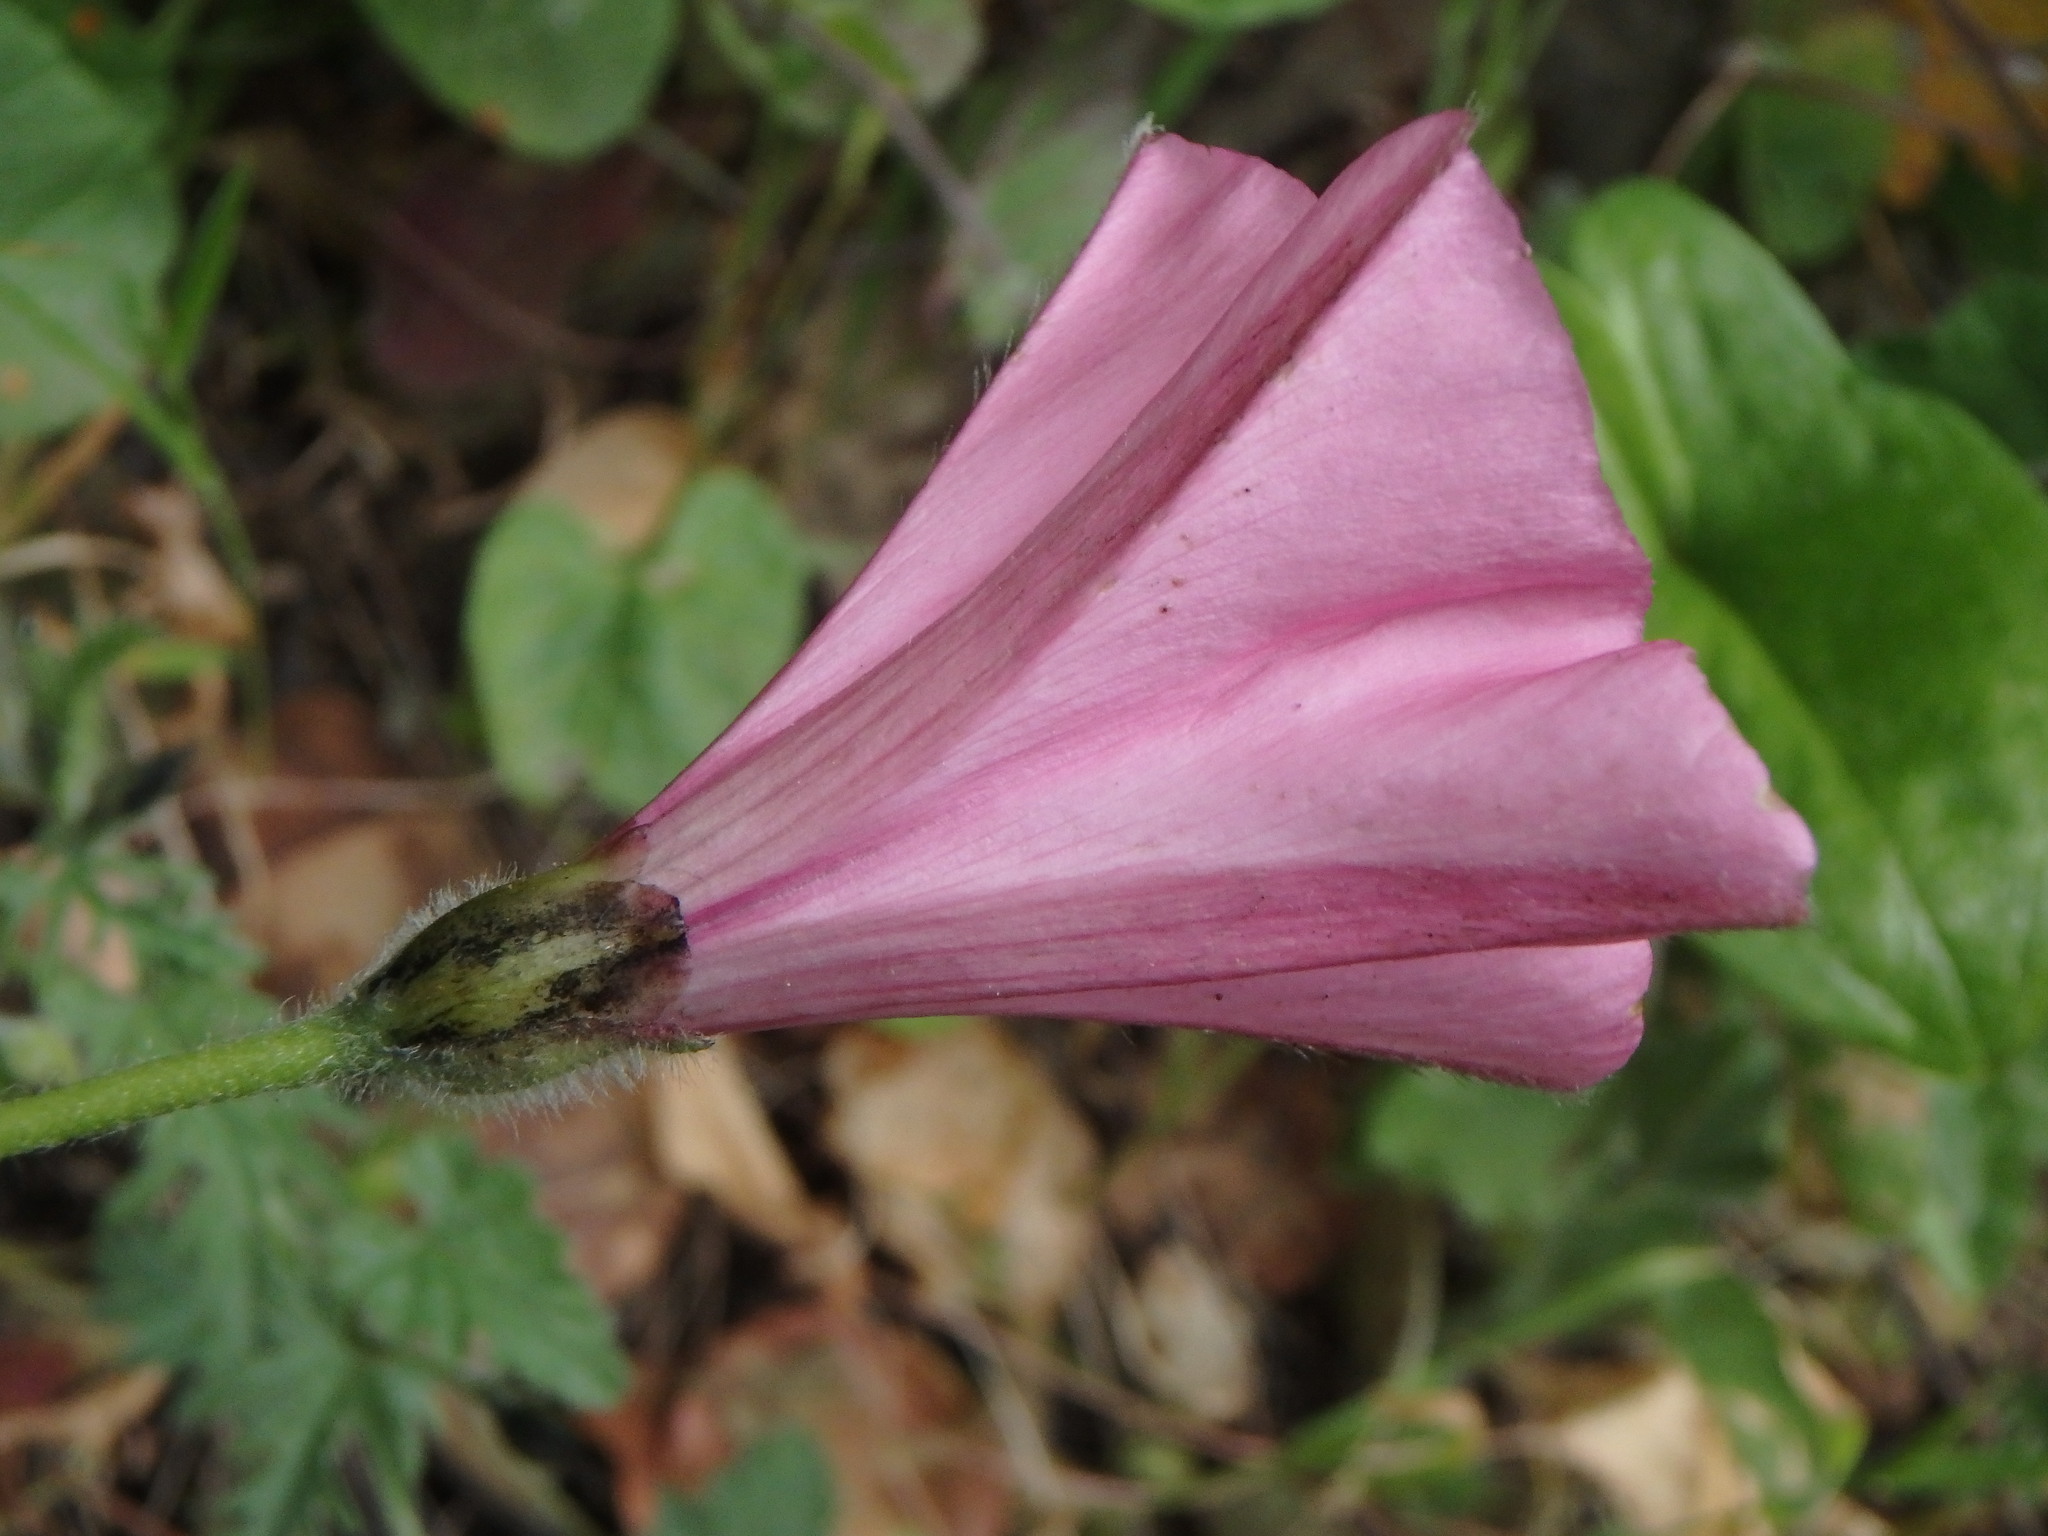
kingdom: Plantae
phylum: Tracheophyta
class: Magnoliopsida
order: Solanales
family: Convolvulaceae
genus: Convolvulus
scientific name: Convolvulus althaeoides
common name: Mallow bindweed
